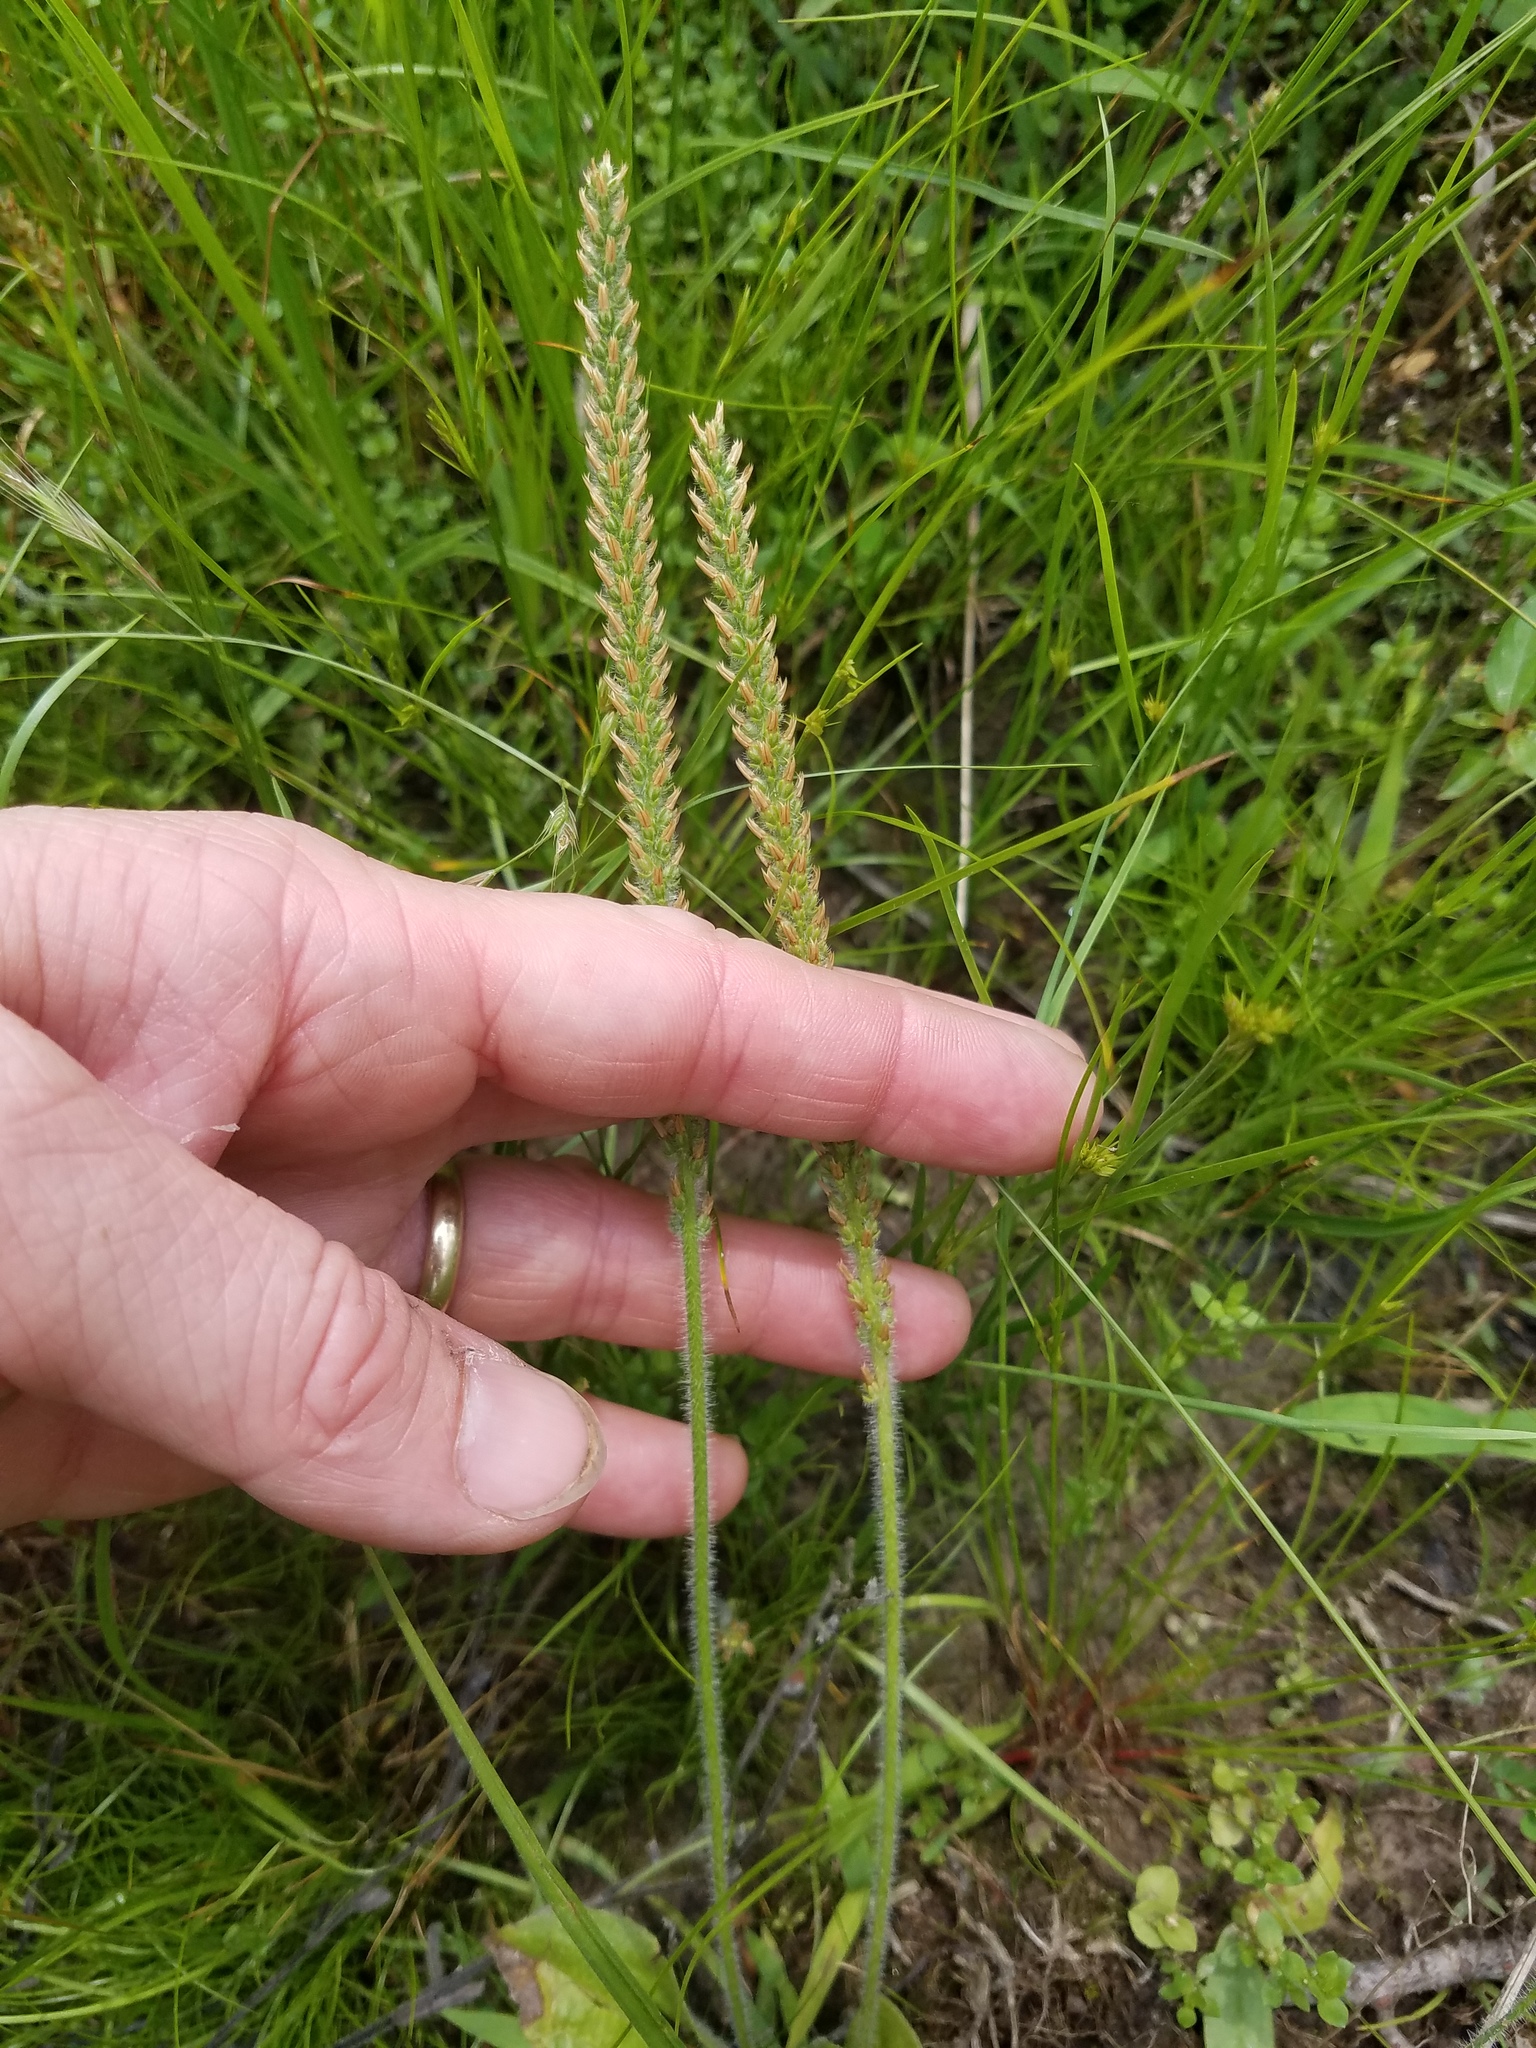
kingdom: Plantae
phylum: Tracheophyta
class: Magnoliopsida
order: Lamiales
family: Plantaginaceae
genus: Plantago
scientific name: Plantago virginica
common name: Hoary plantain
